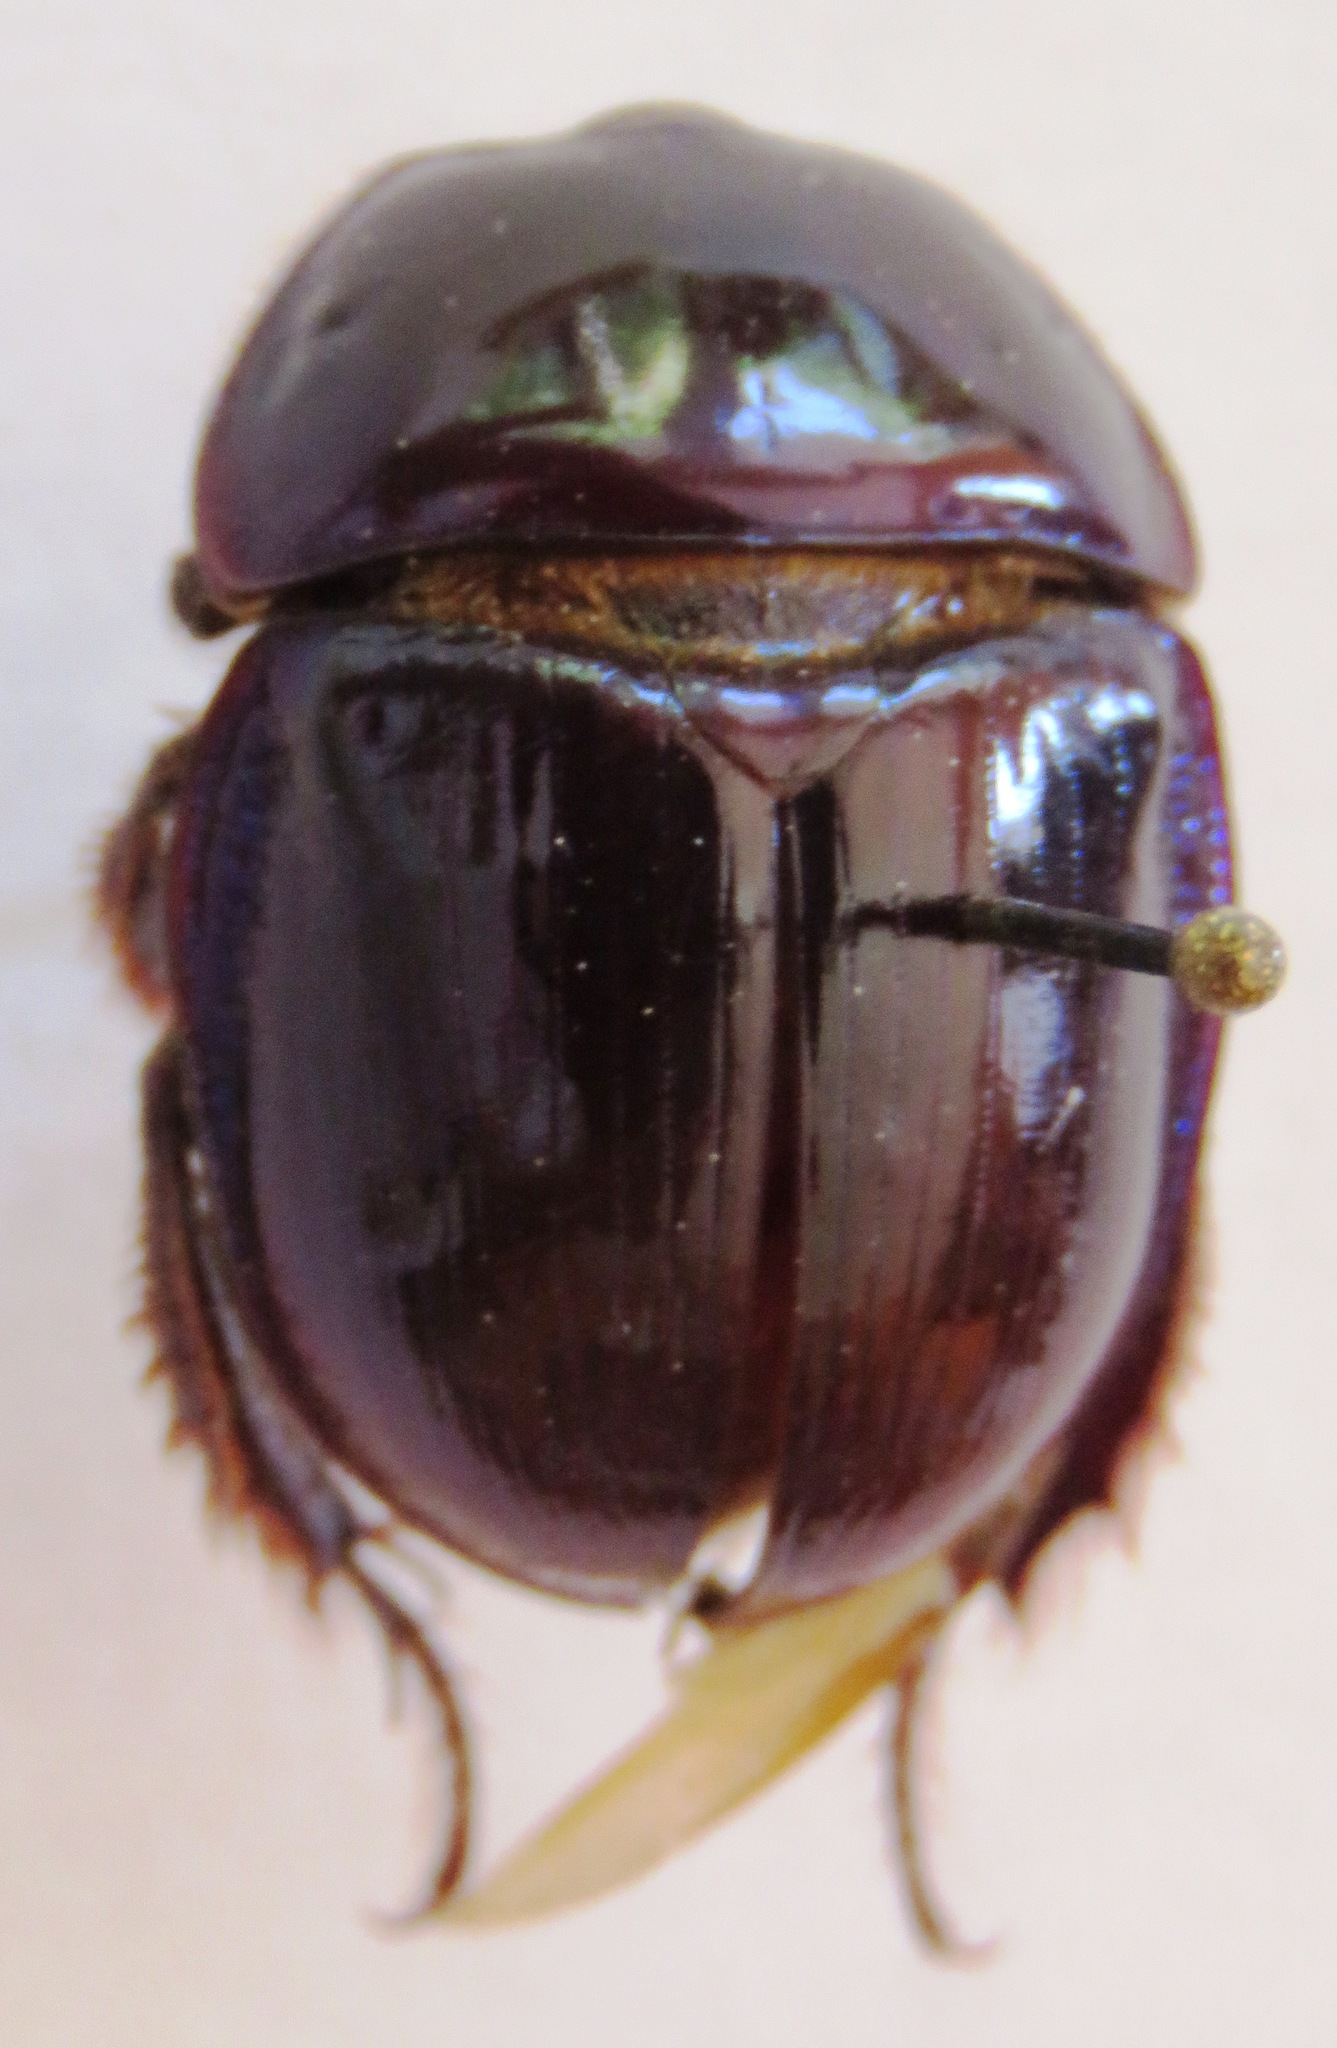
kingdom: Animalia
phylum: Arthropoda
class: Insecta
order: Coleoptera
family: Geotrupidae
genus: Peltotrupes
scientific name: Peltotrupes profundus
